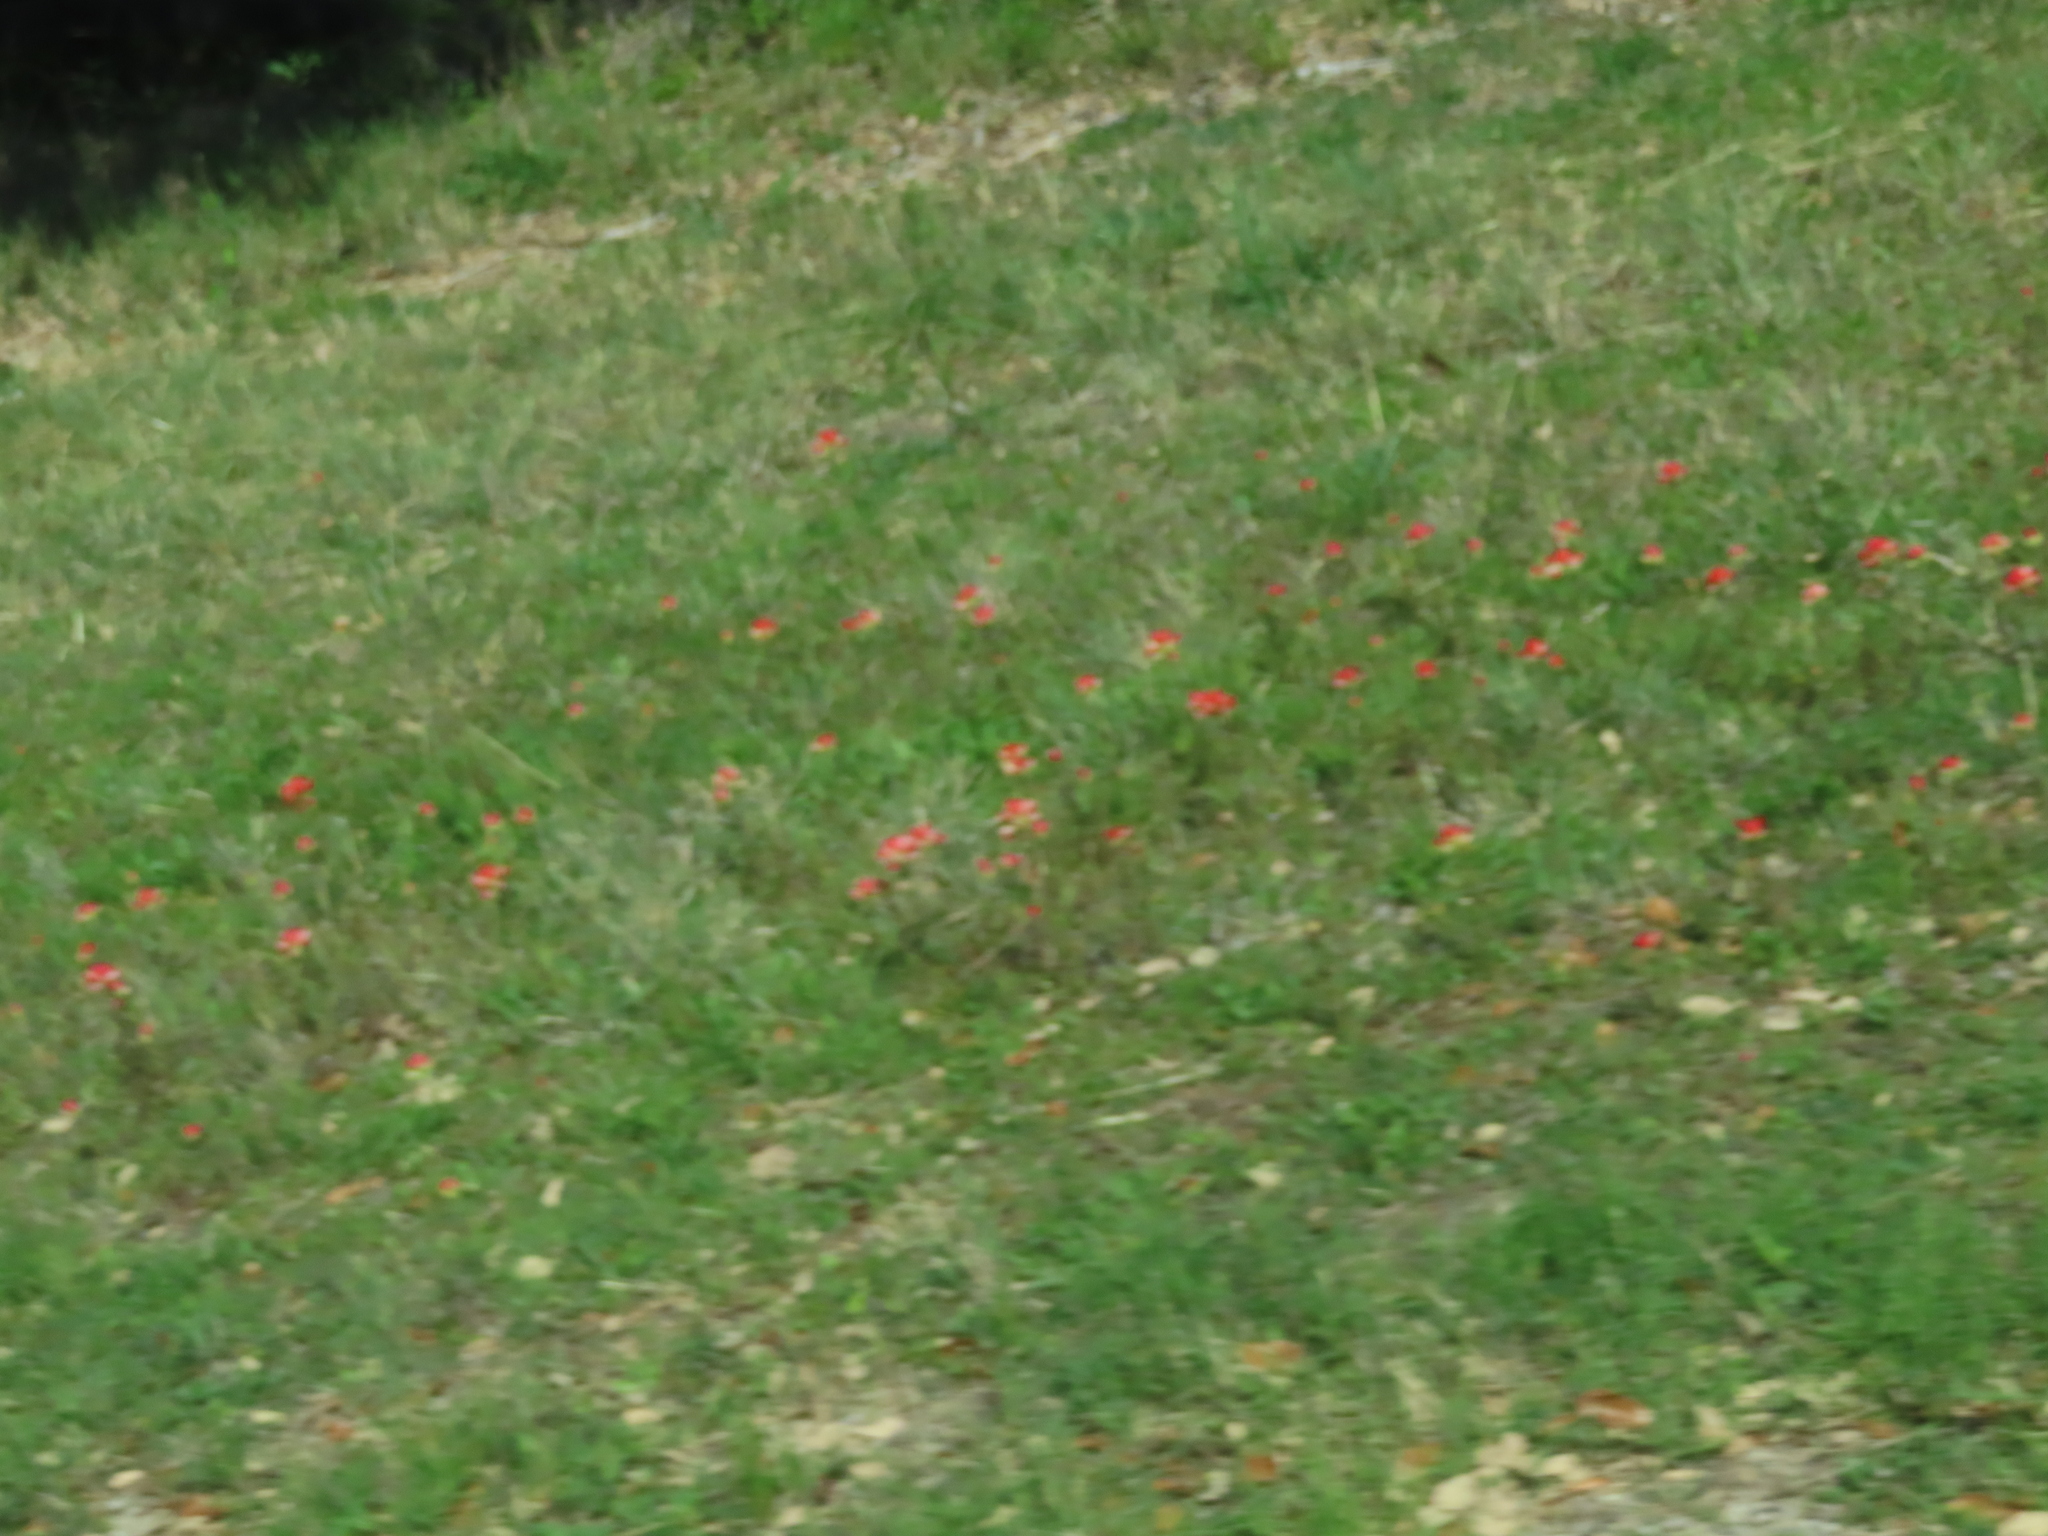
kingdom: Plantae
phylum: Tracheophyta
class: Magnoliopsida
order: Lamiales
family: Orobanchaceae
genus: Castilleja
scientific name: Castilleja indivisa
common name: Texas paintbrush
